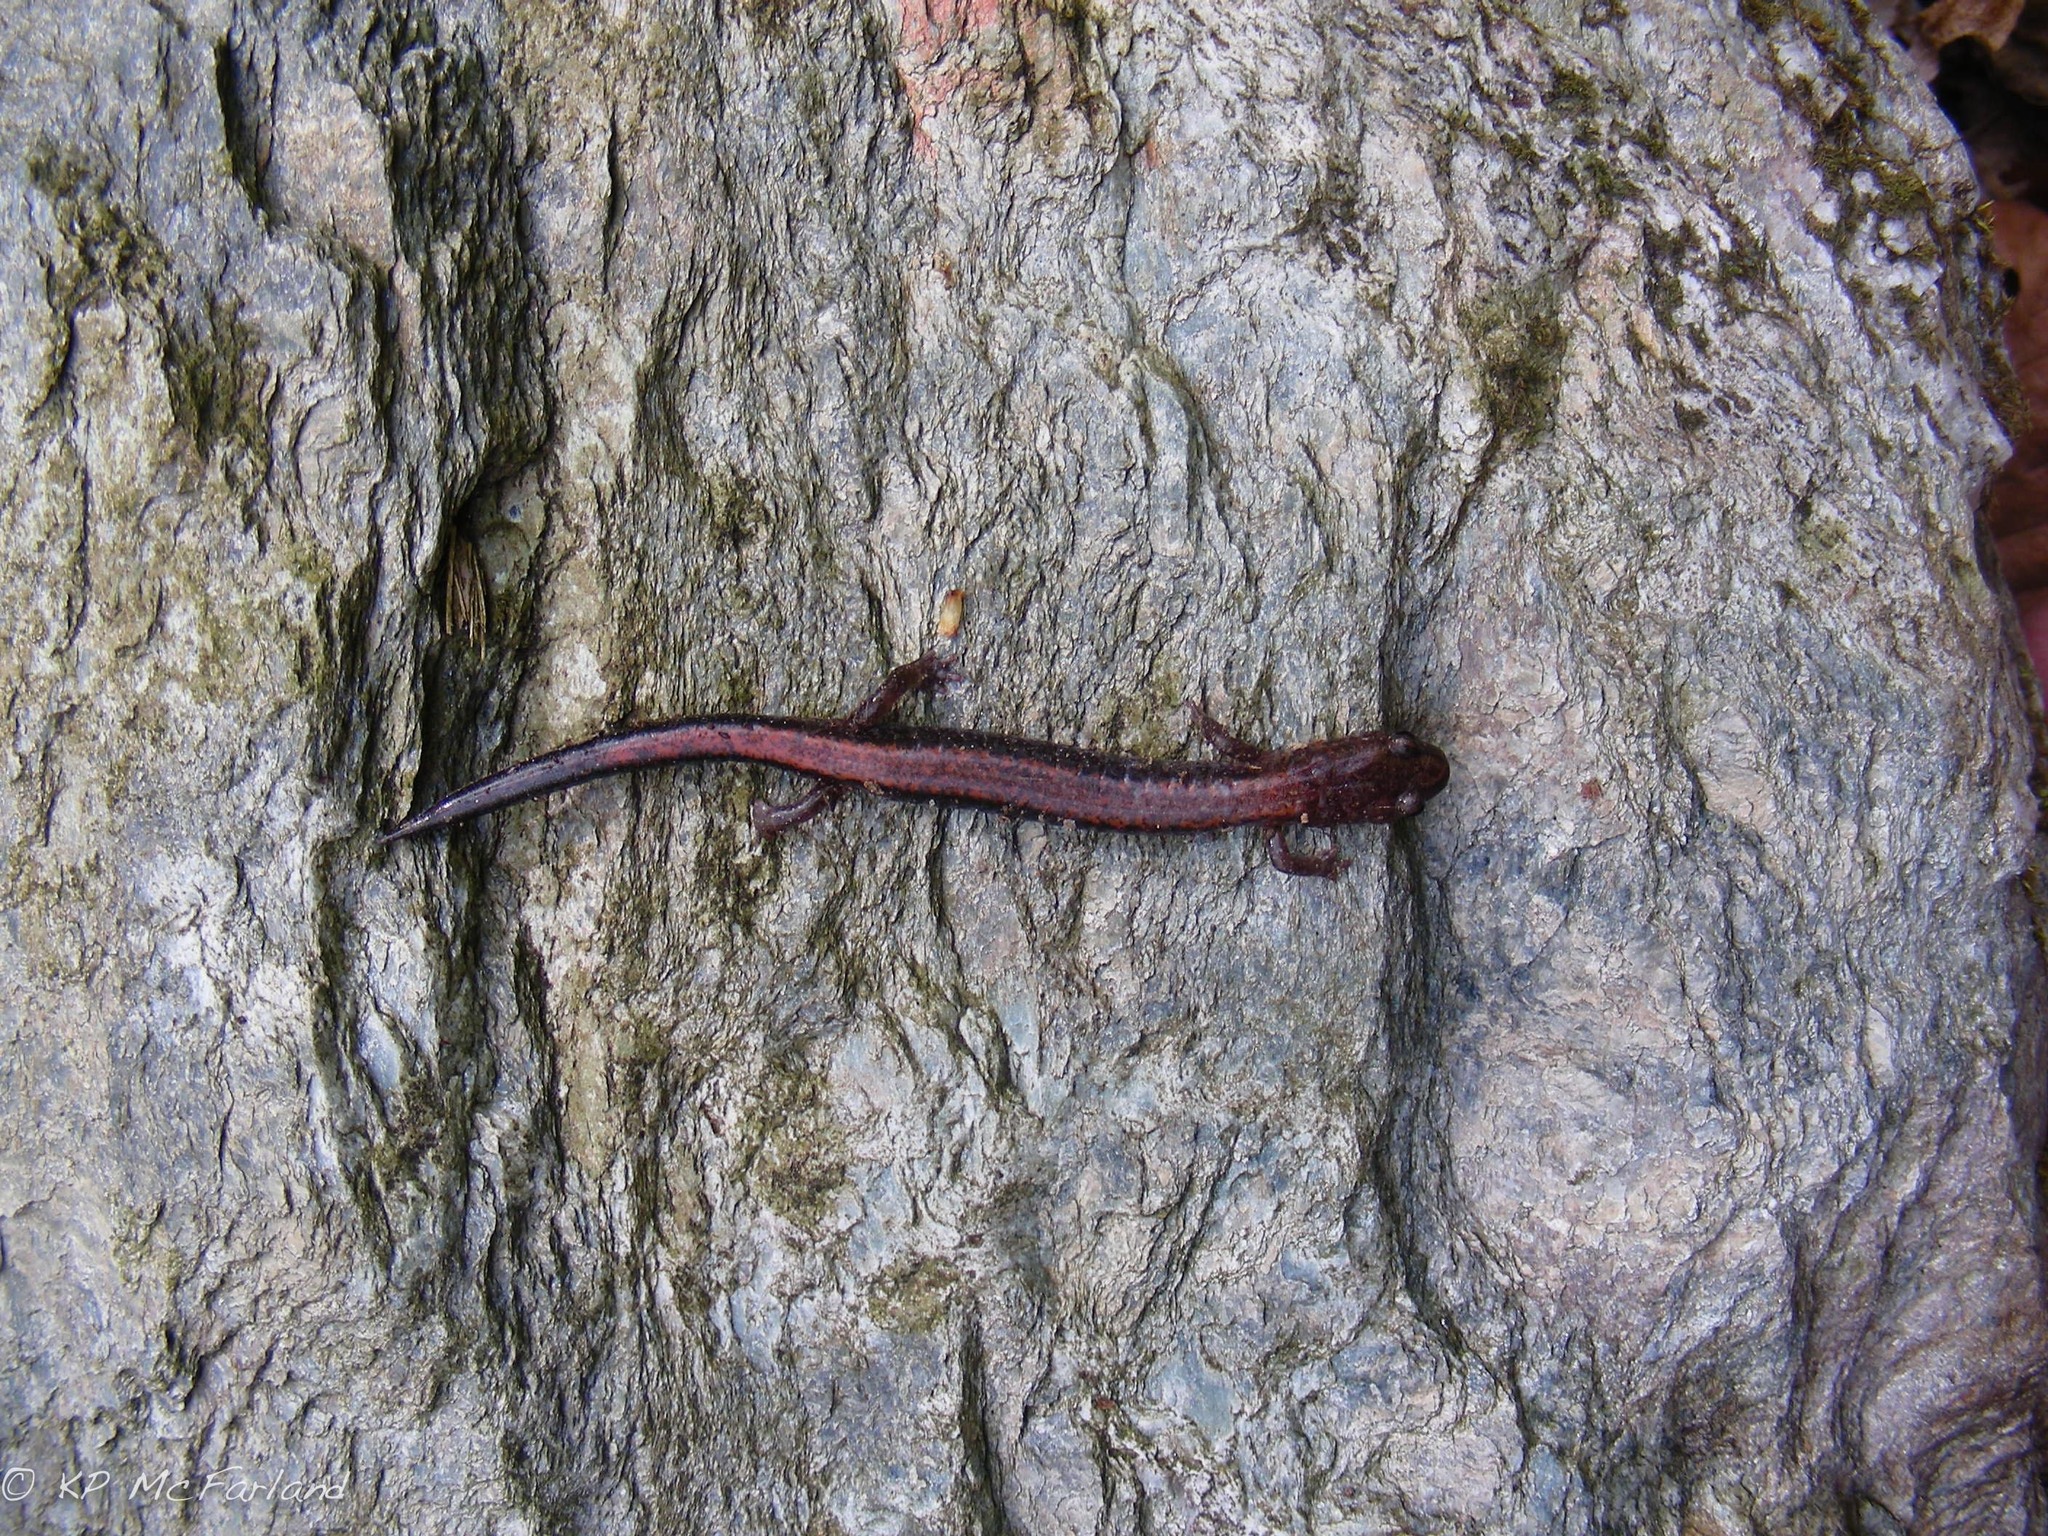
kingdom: Animalia
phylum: Chordata
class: Amphibia
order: Caudata
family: Plethodontidae
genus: Plethodon
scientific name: Plethodon cinereus
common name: Redback salamander
